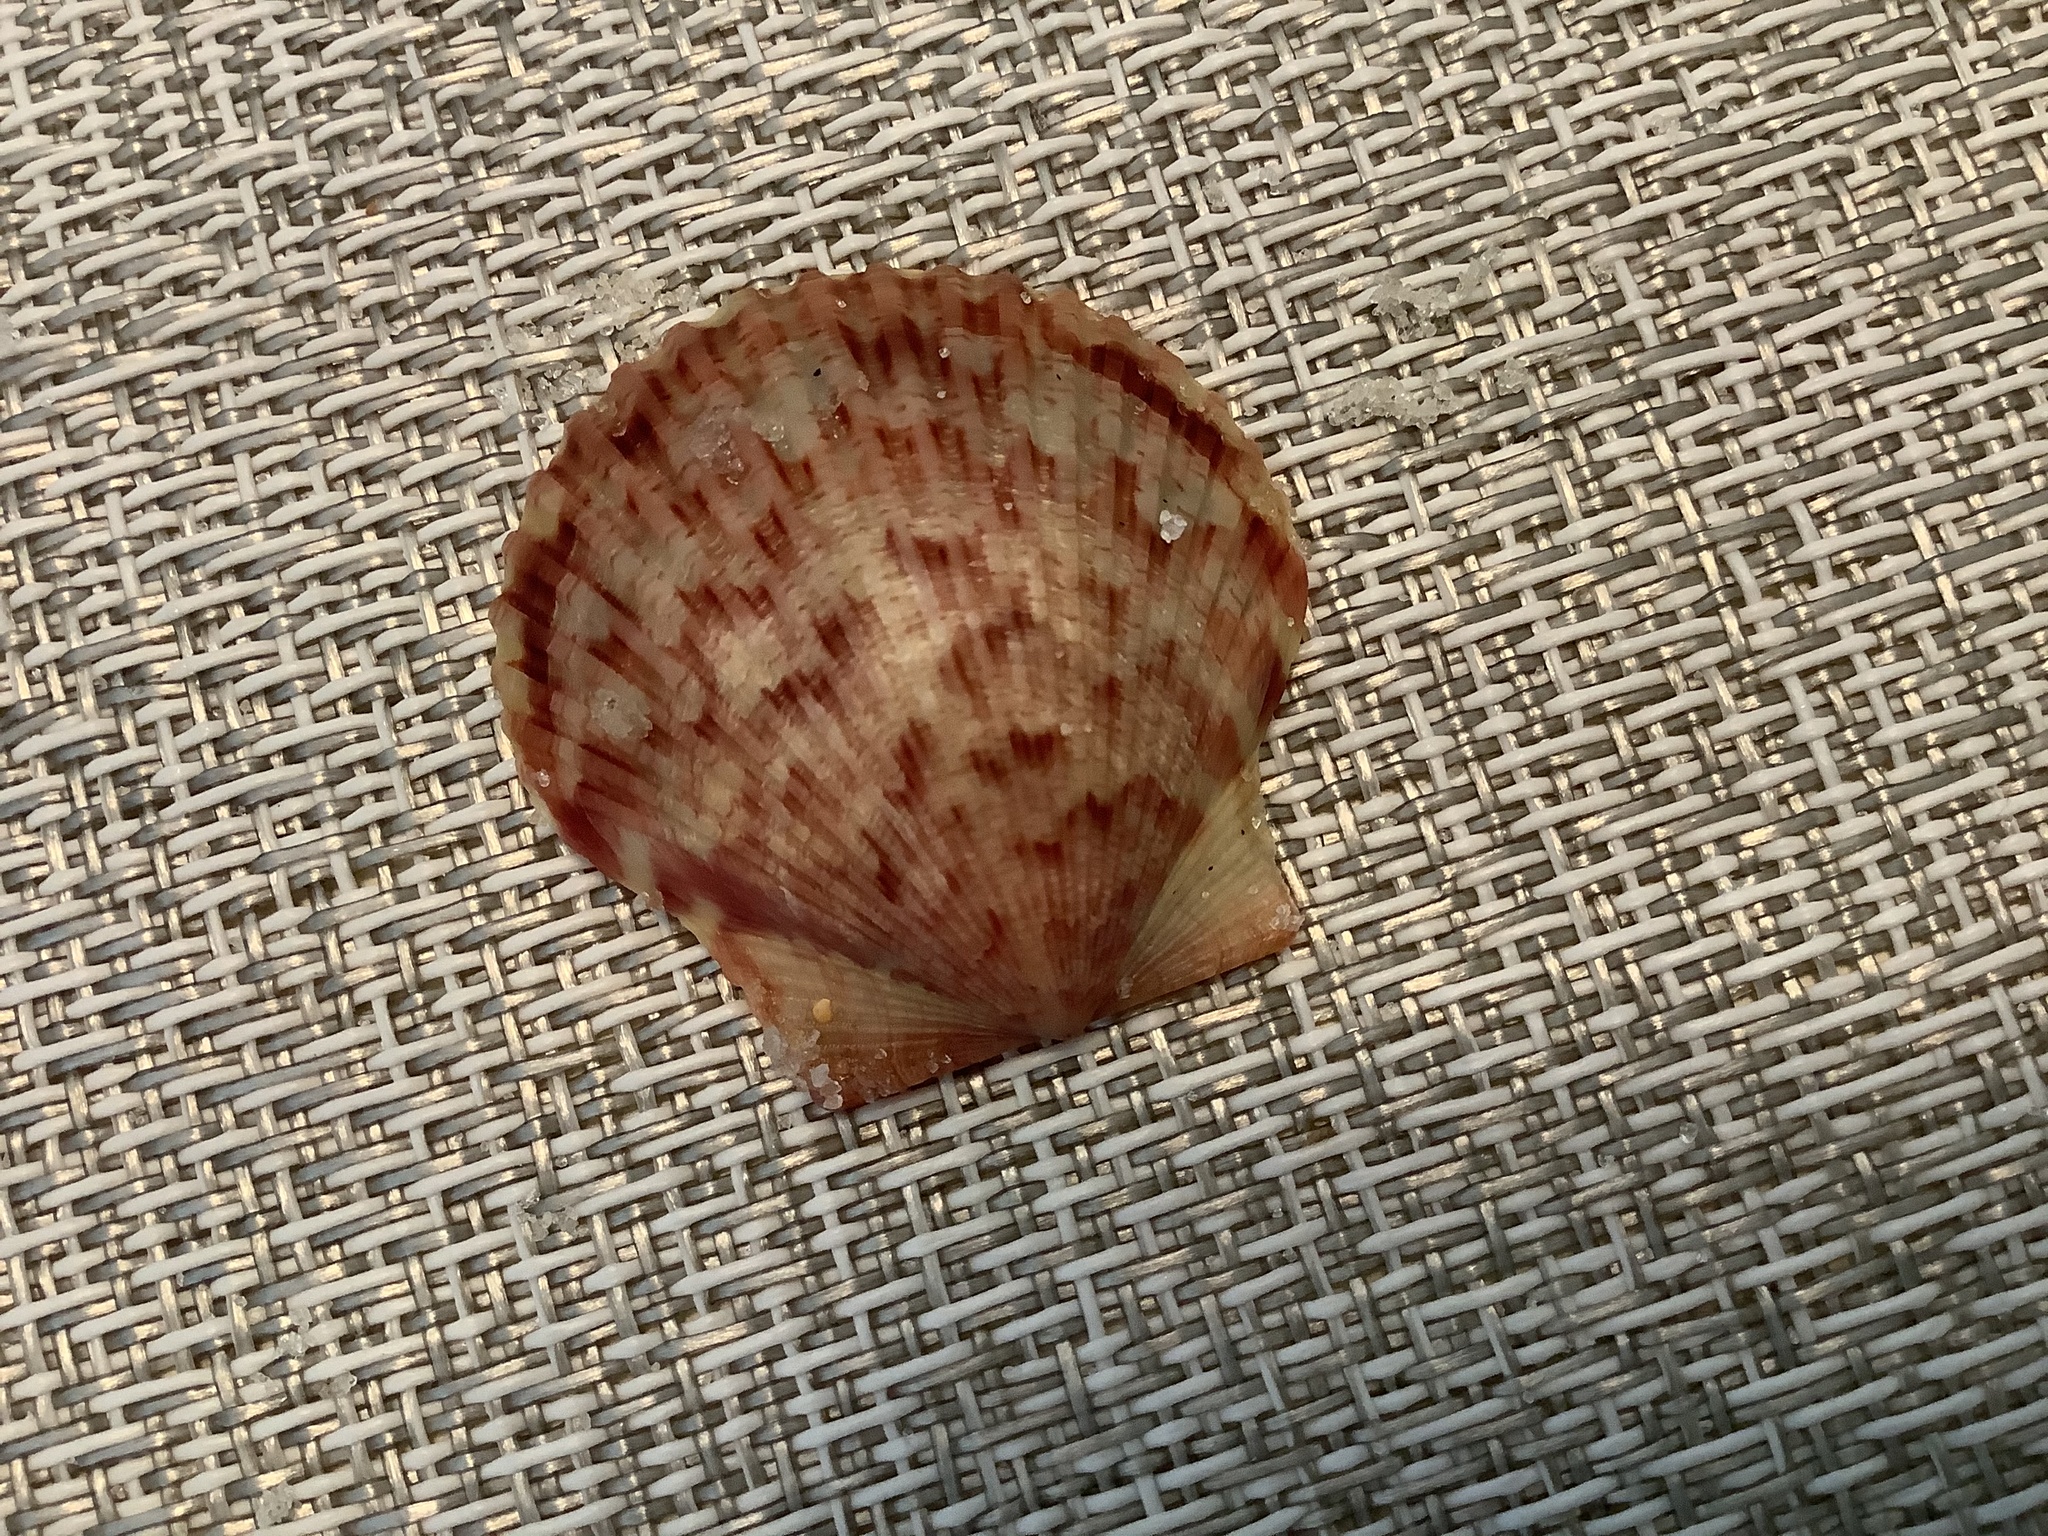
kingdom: Animalia
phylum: Mollusca
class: Bivalvia
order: Pectinida
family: Pectinidae
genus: Argopecten
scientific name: Argopecten gibbus
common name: Atlantic calico scallop
